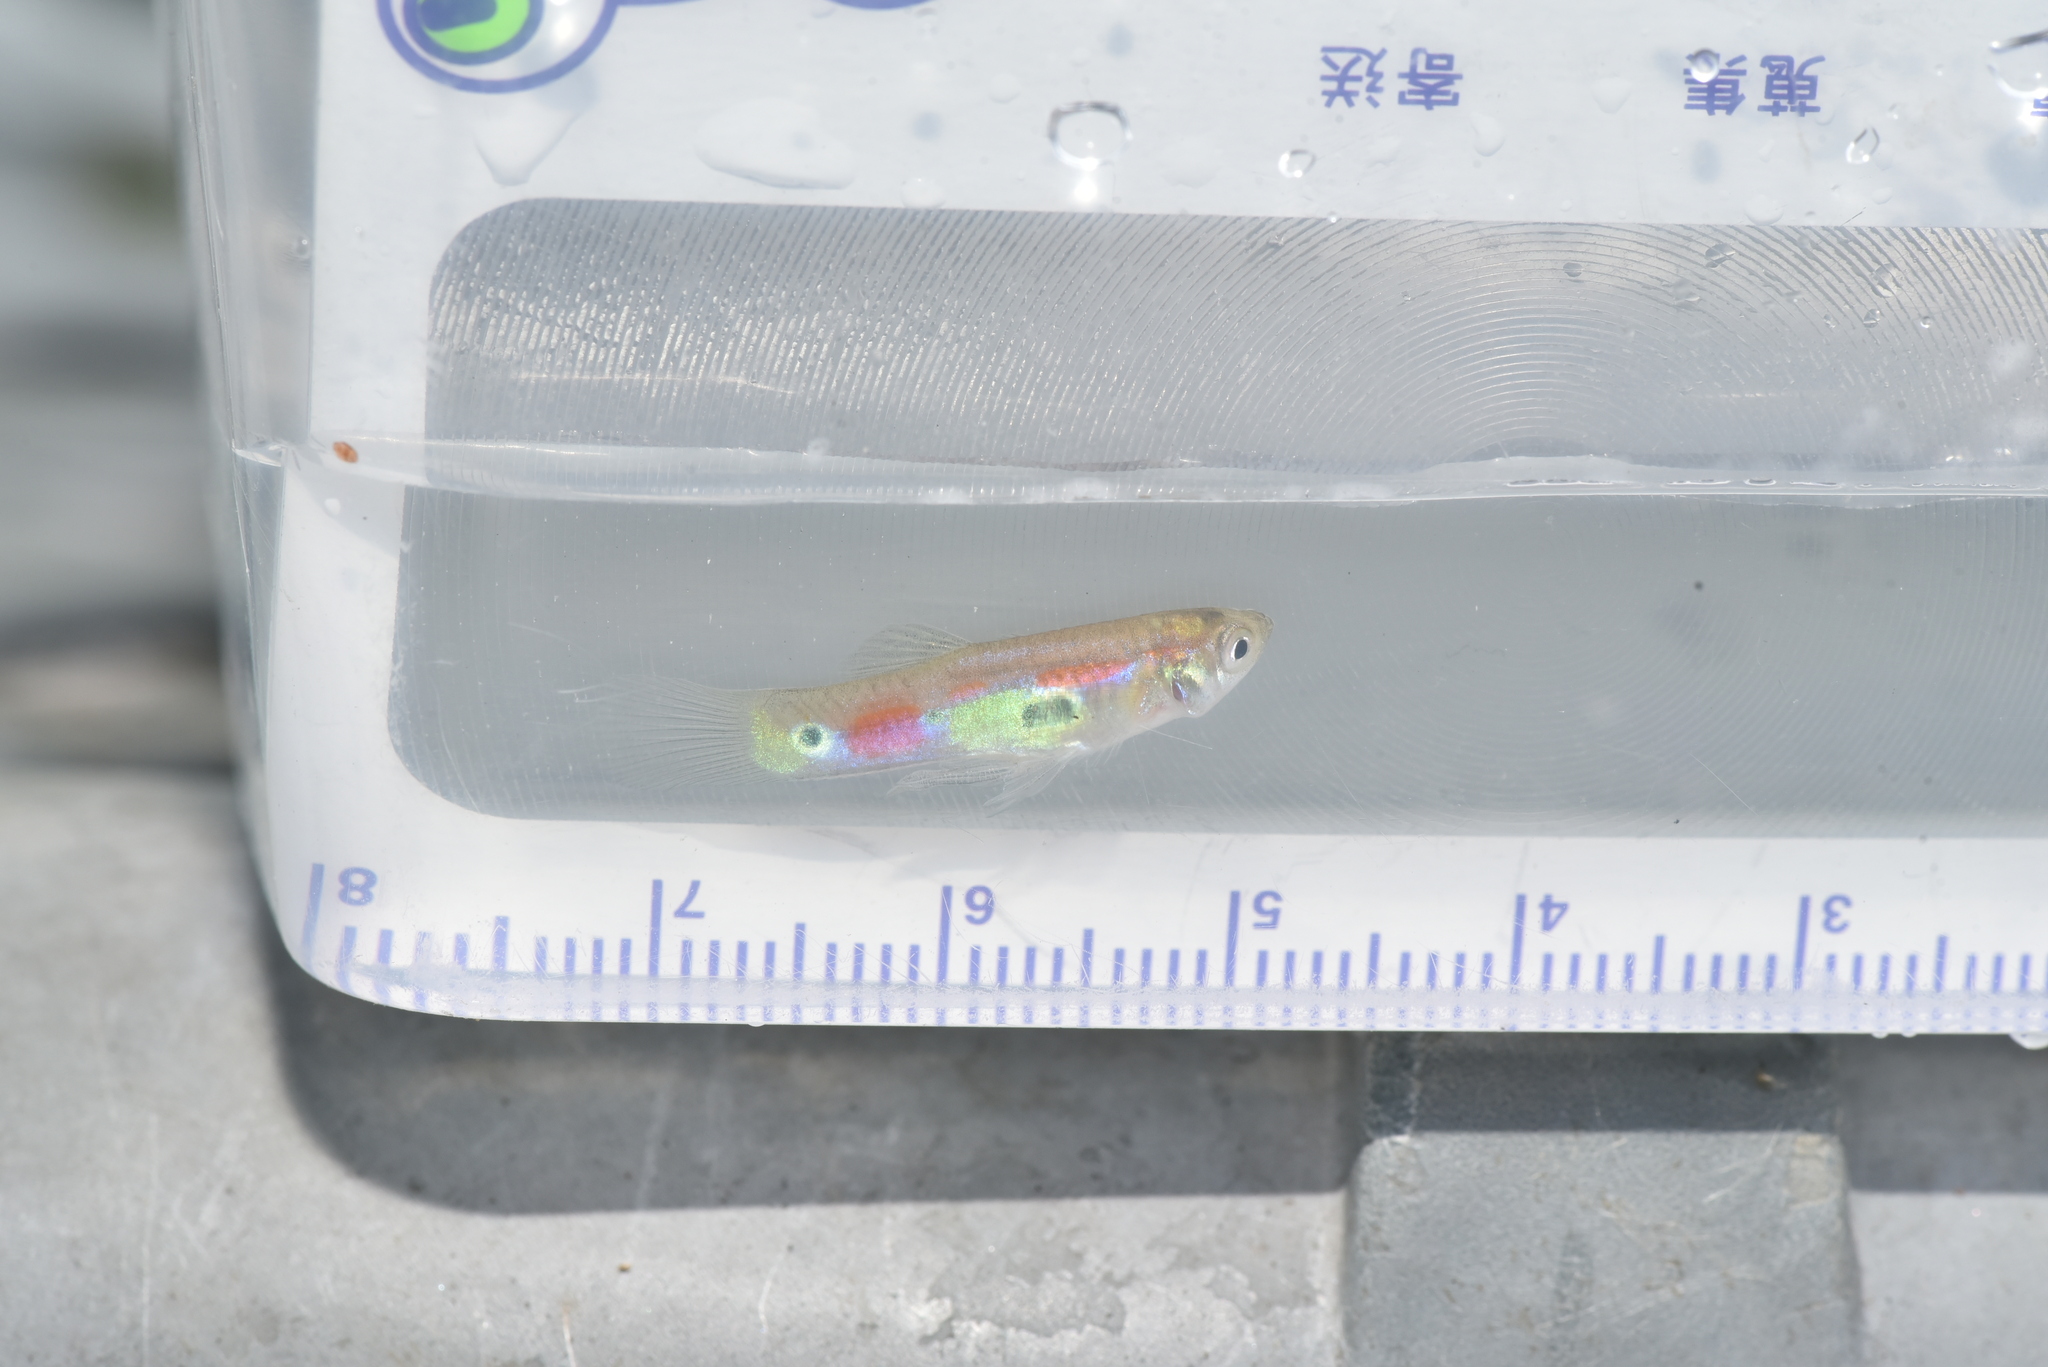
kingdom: Animalia
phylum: Chordata
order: Cyprinodontiformes
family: Poeciliidae
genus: Poecilia
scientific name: Poecilia reticulata
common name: Guppy
